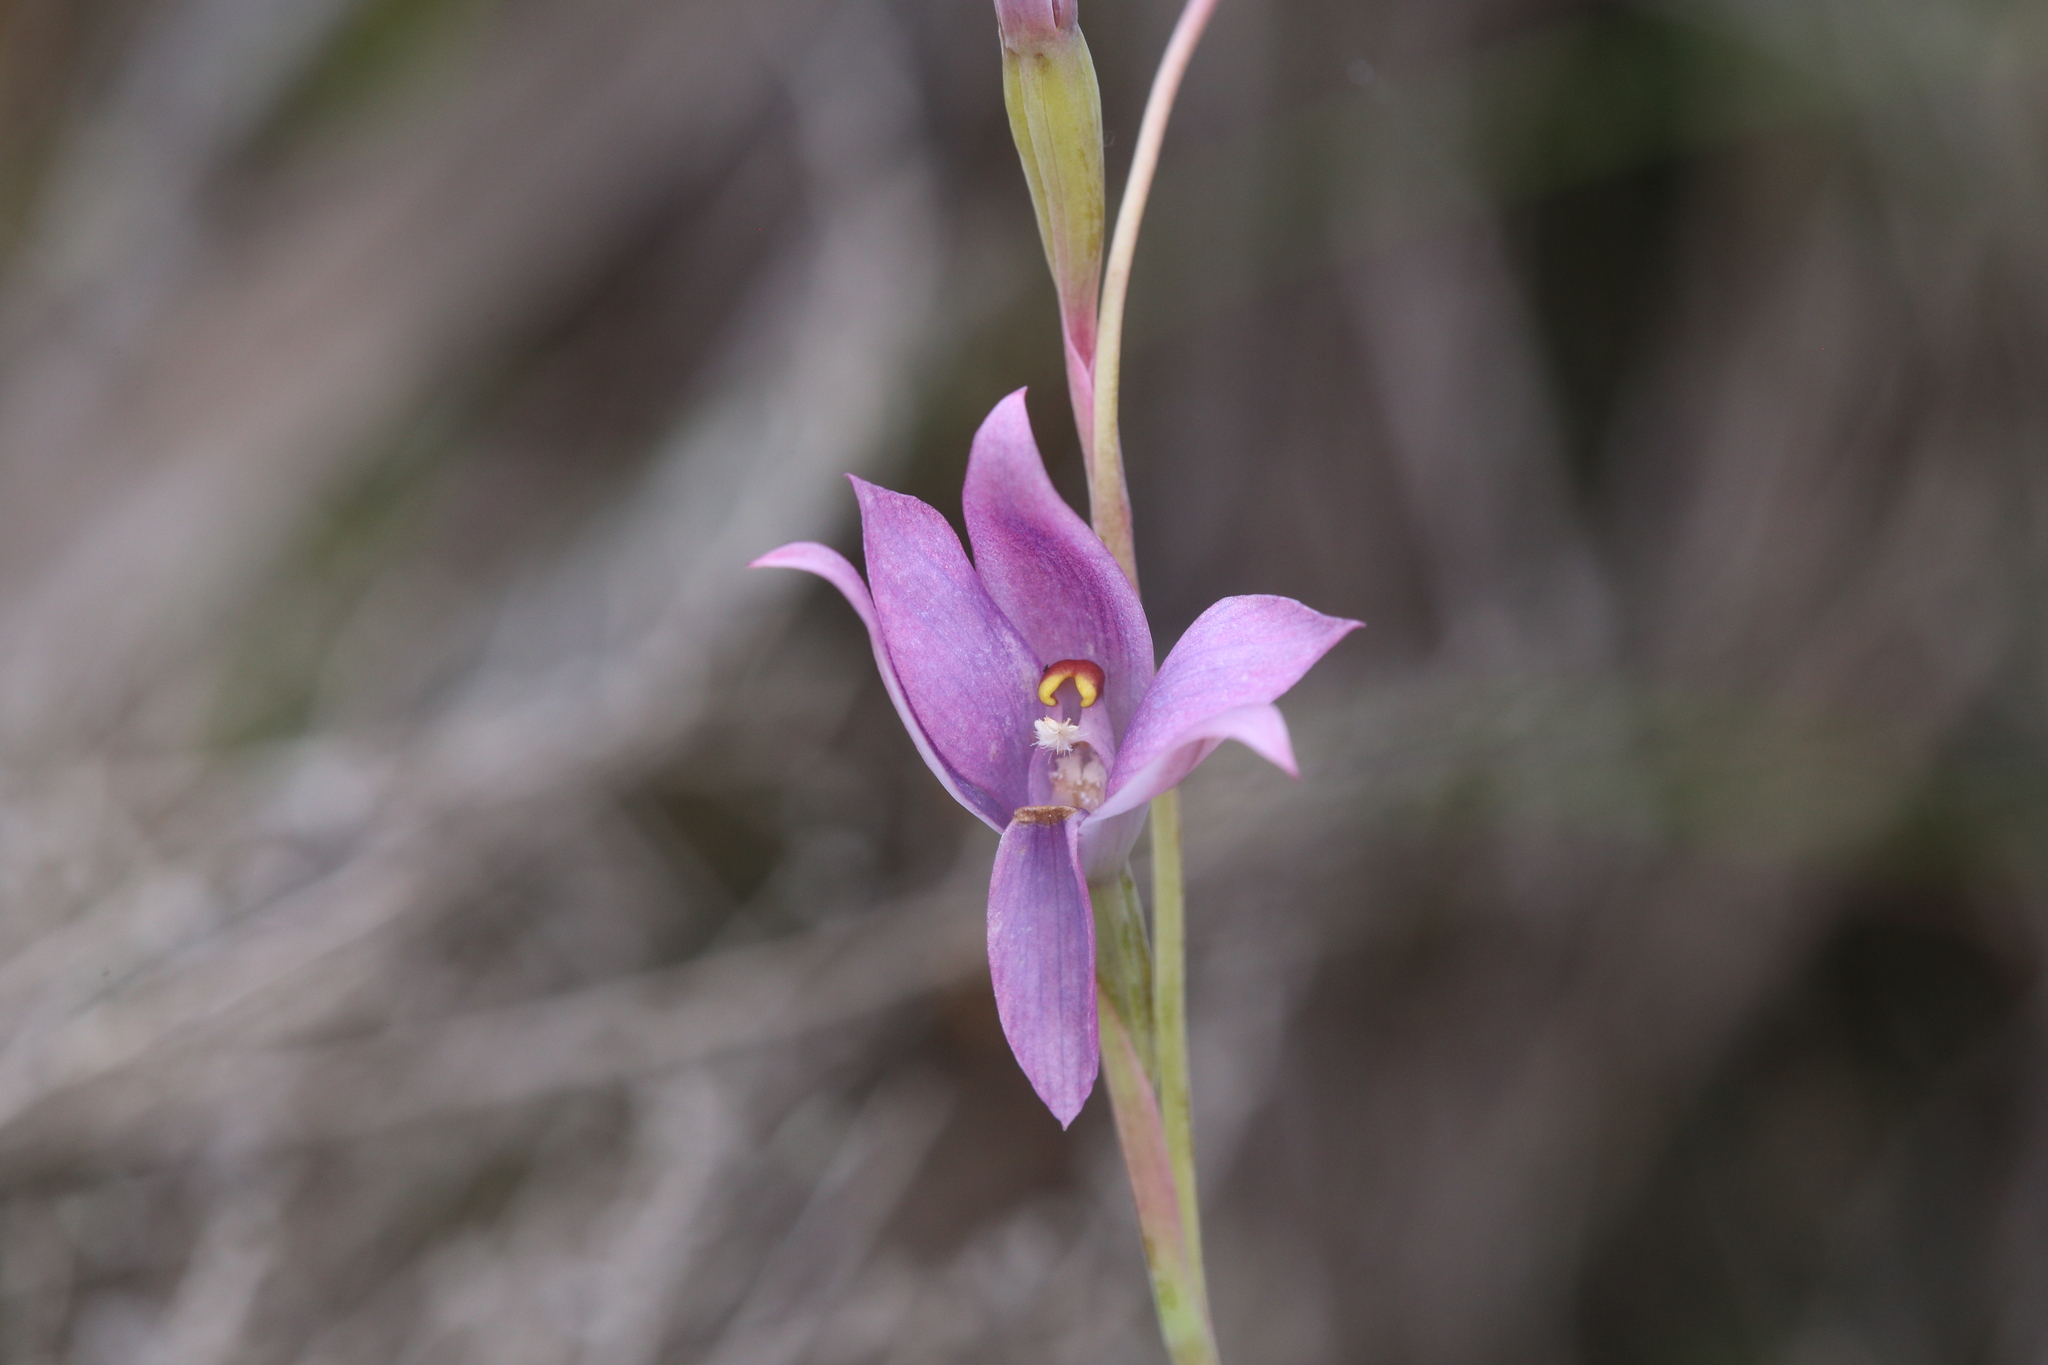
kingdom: Plantae
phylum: Tracheophyta
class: Liliopsida
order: Asparagales
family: Orchidaceae
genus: Thelymitra
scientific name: Thelymitra graminea
